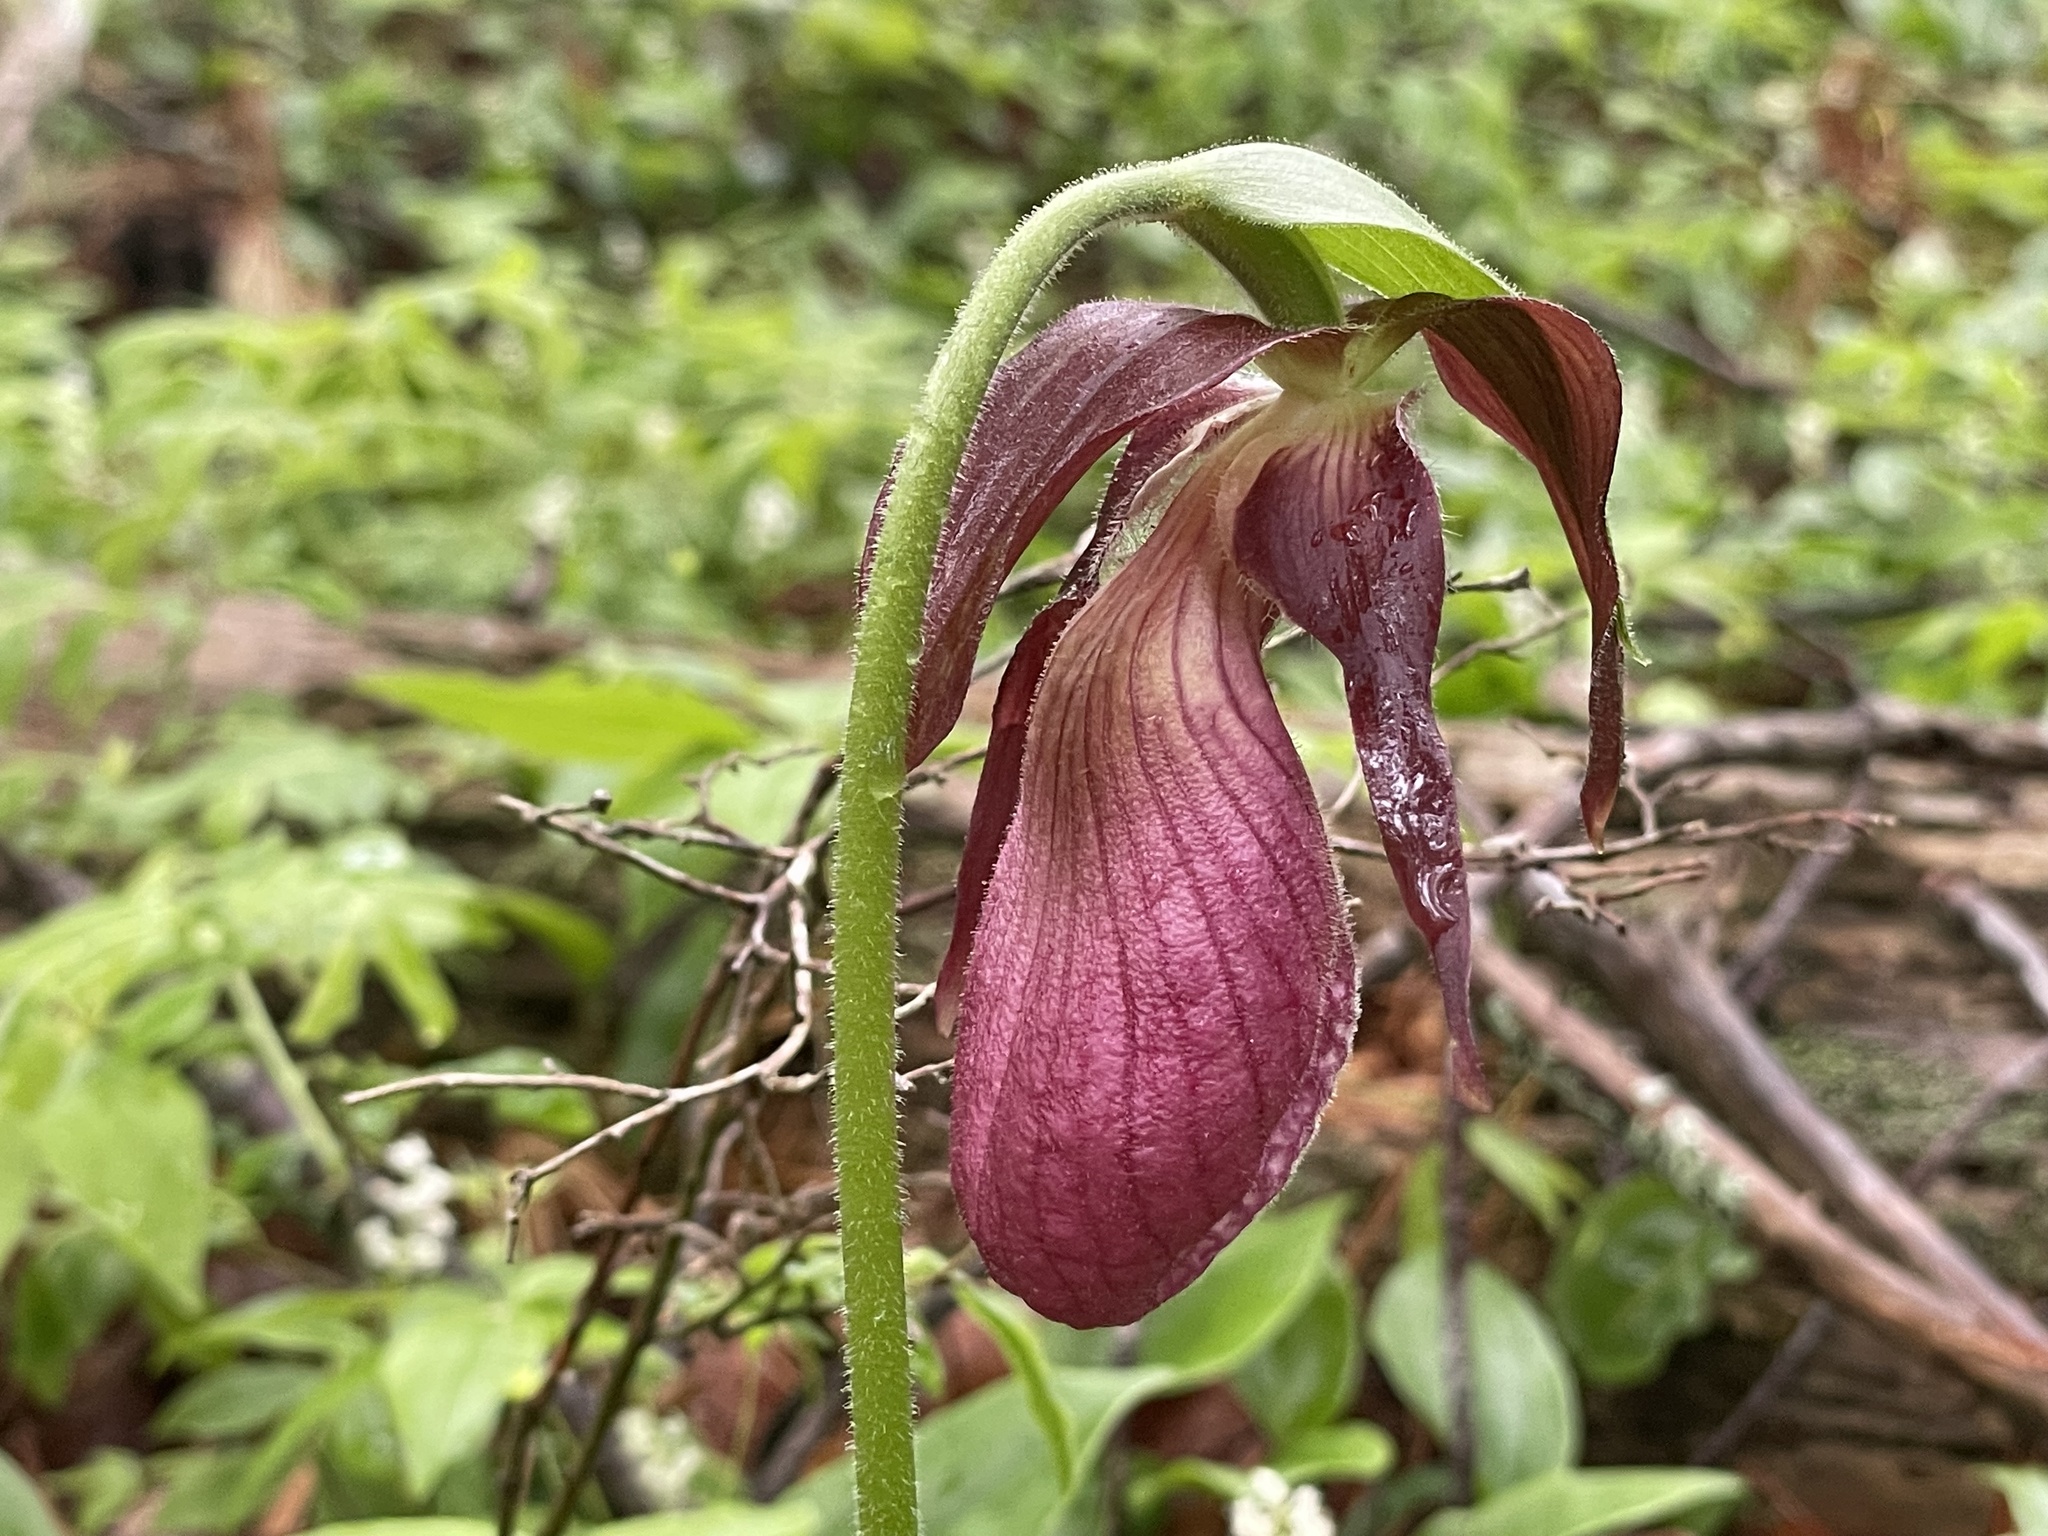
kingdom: Plantae
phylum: Tracheophyta
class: Liliopsida
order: Asparagales
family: Orchidaceae
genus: Cypripedium
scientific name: Cypripedium acaule
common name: Pink lady's-slipper
